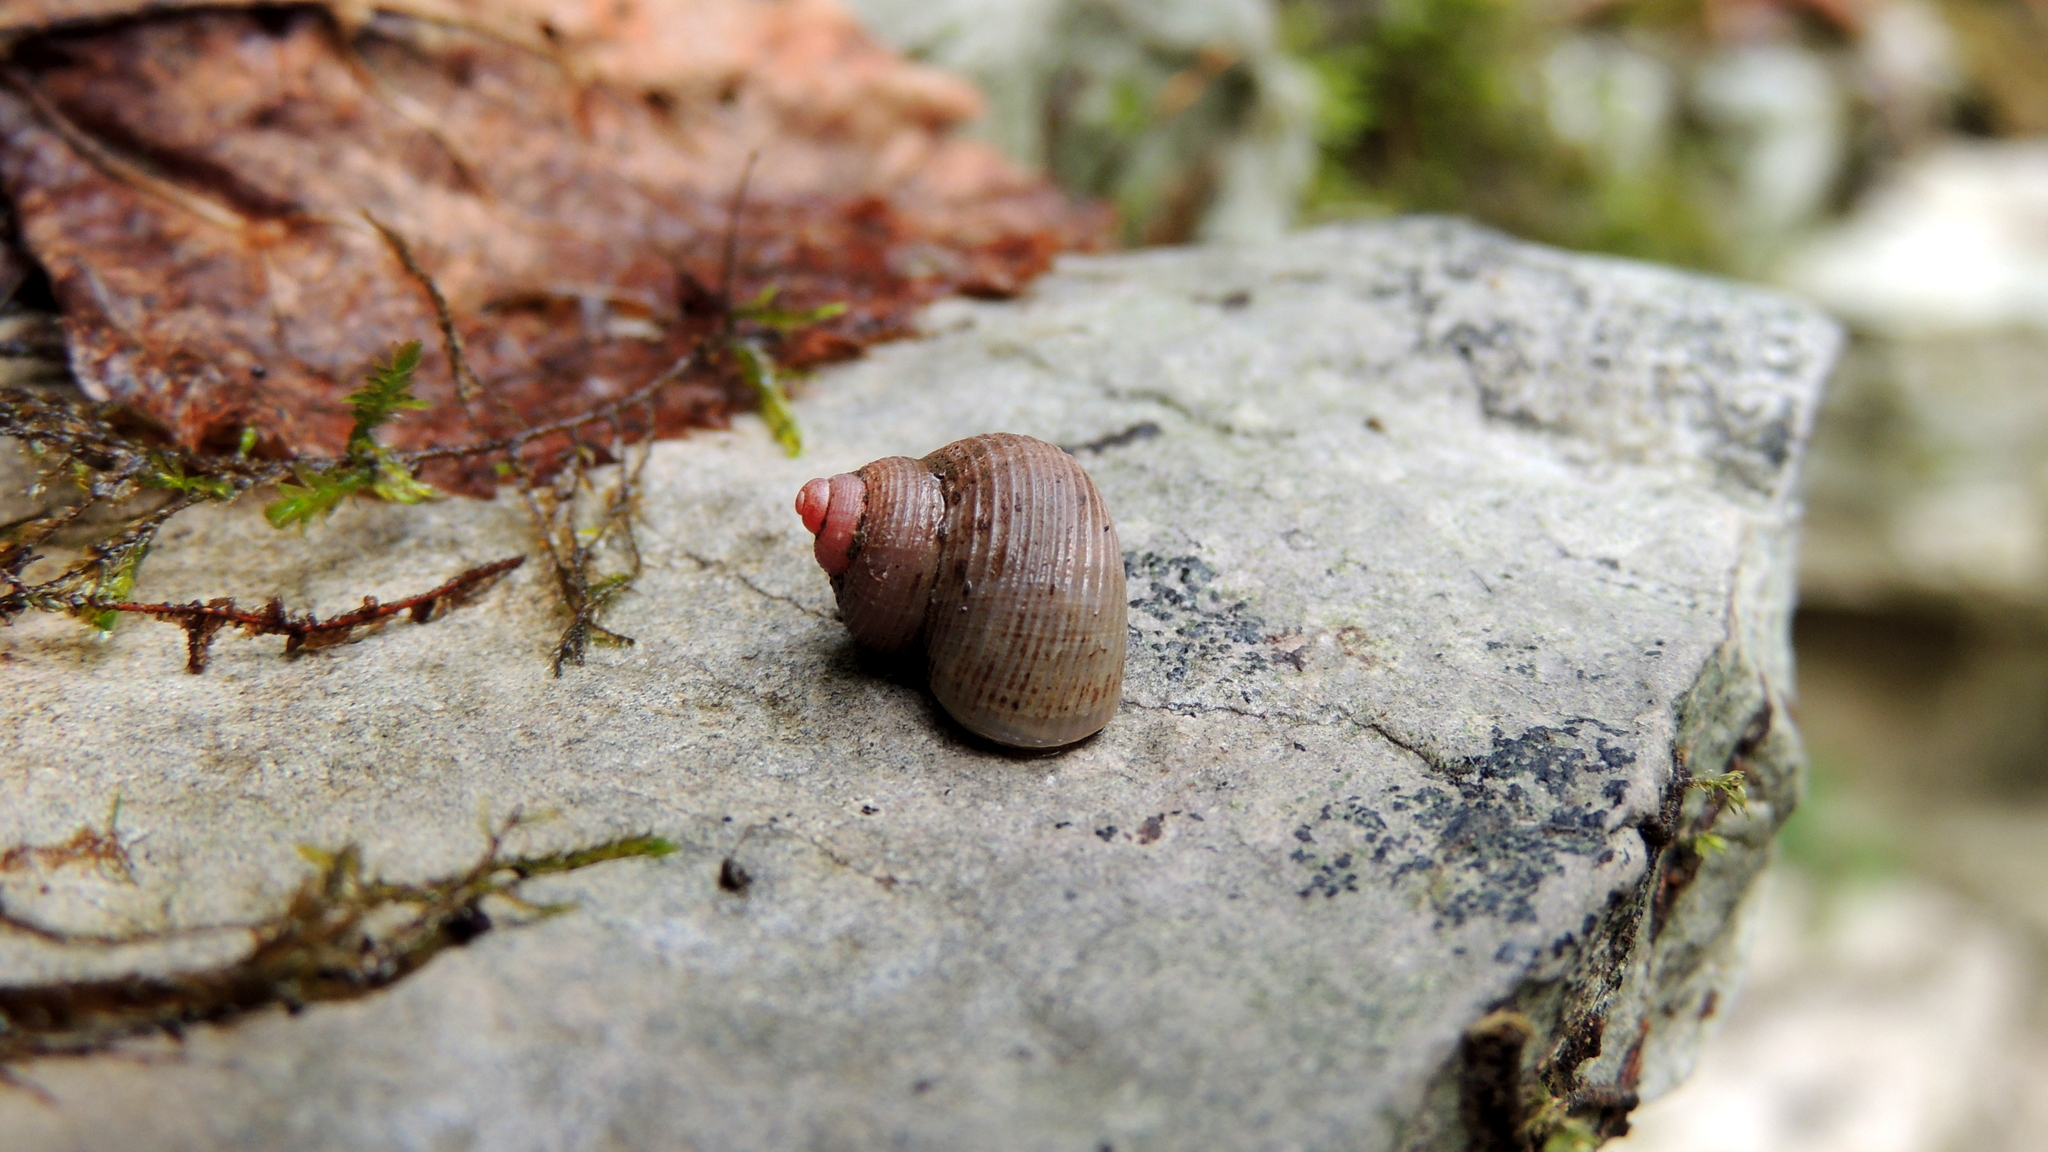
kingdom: Animalia
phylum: Mollusca
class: Gastropoda
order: Littorinimorpha
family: Pomatiidae
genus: Pomatias
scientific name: Pomatias rivularis
